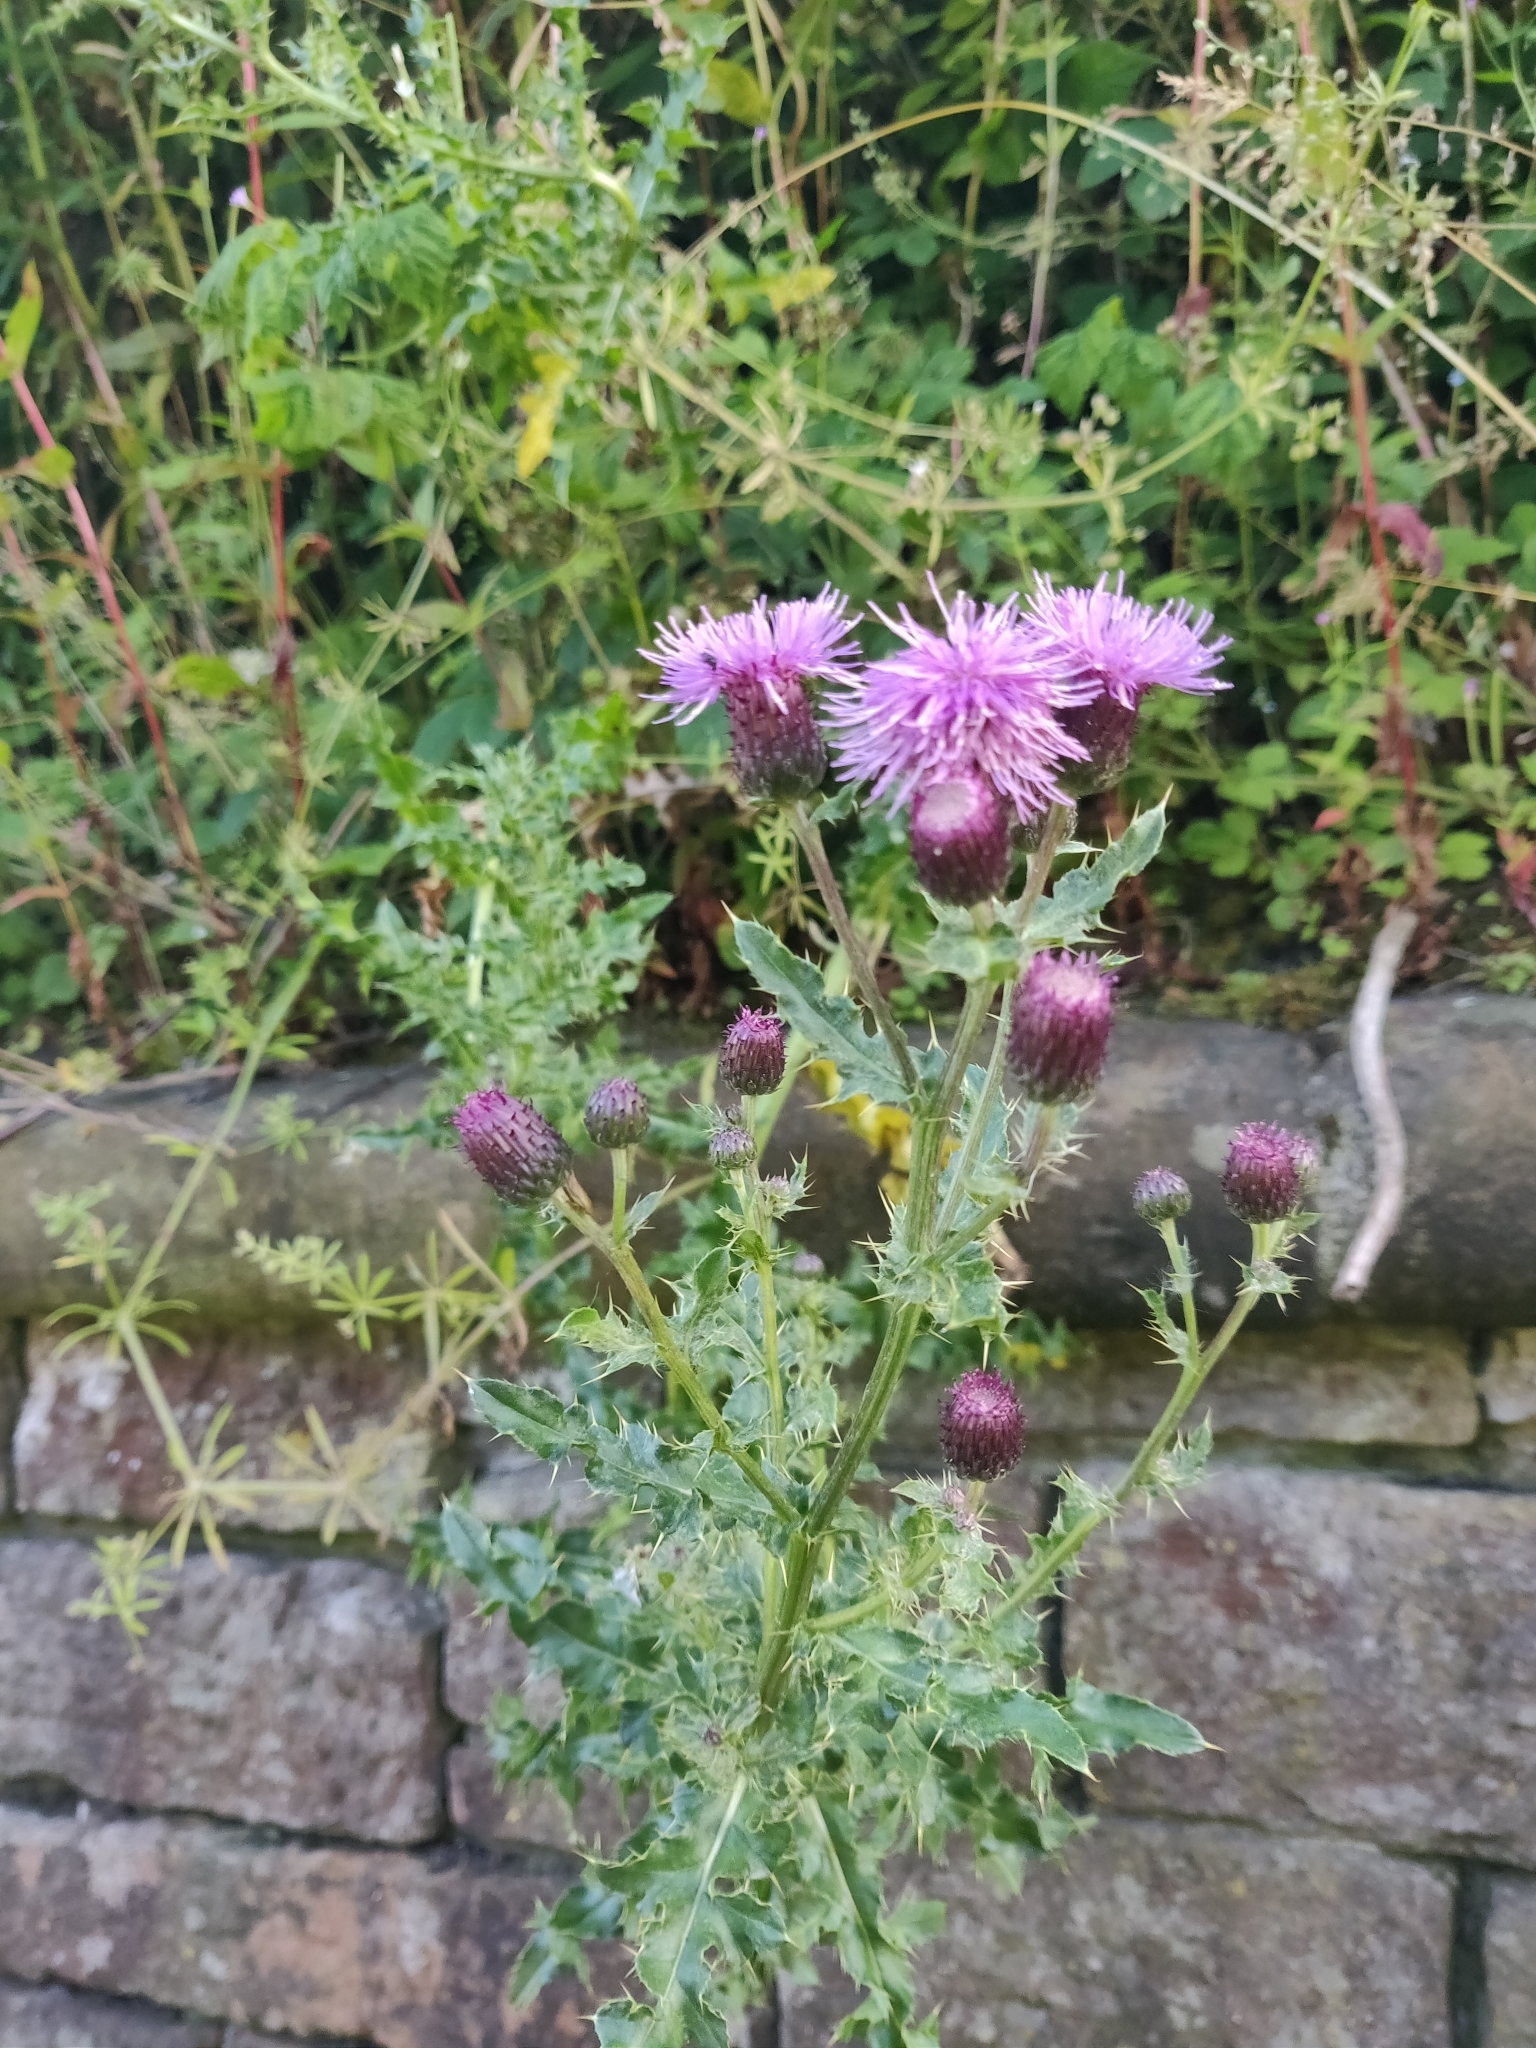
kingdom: Plantae
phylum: Tracheophyta
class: Magnoliopsida
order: Asterales
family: Asteraceae
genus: Cirsium
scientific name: Cirsium arvense
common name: Creeping thistle
